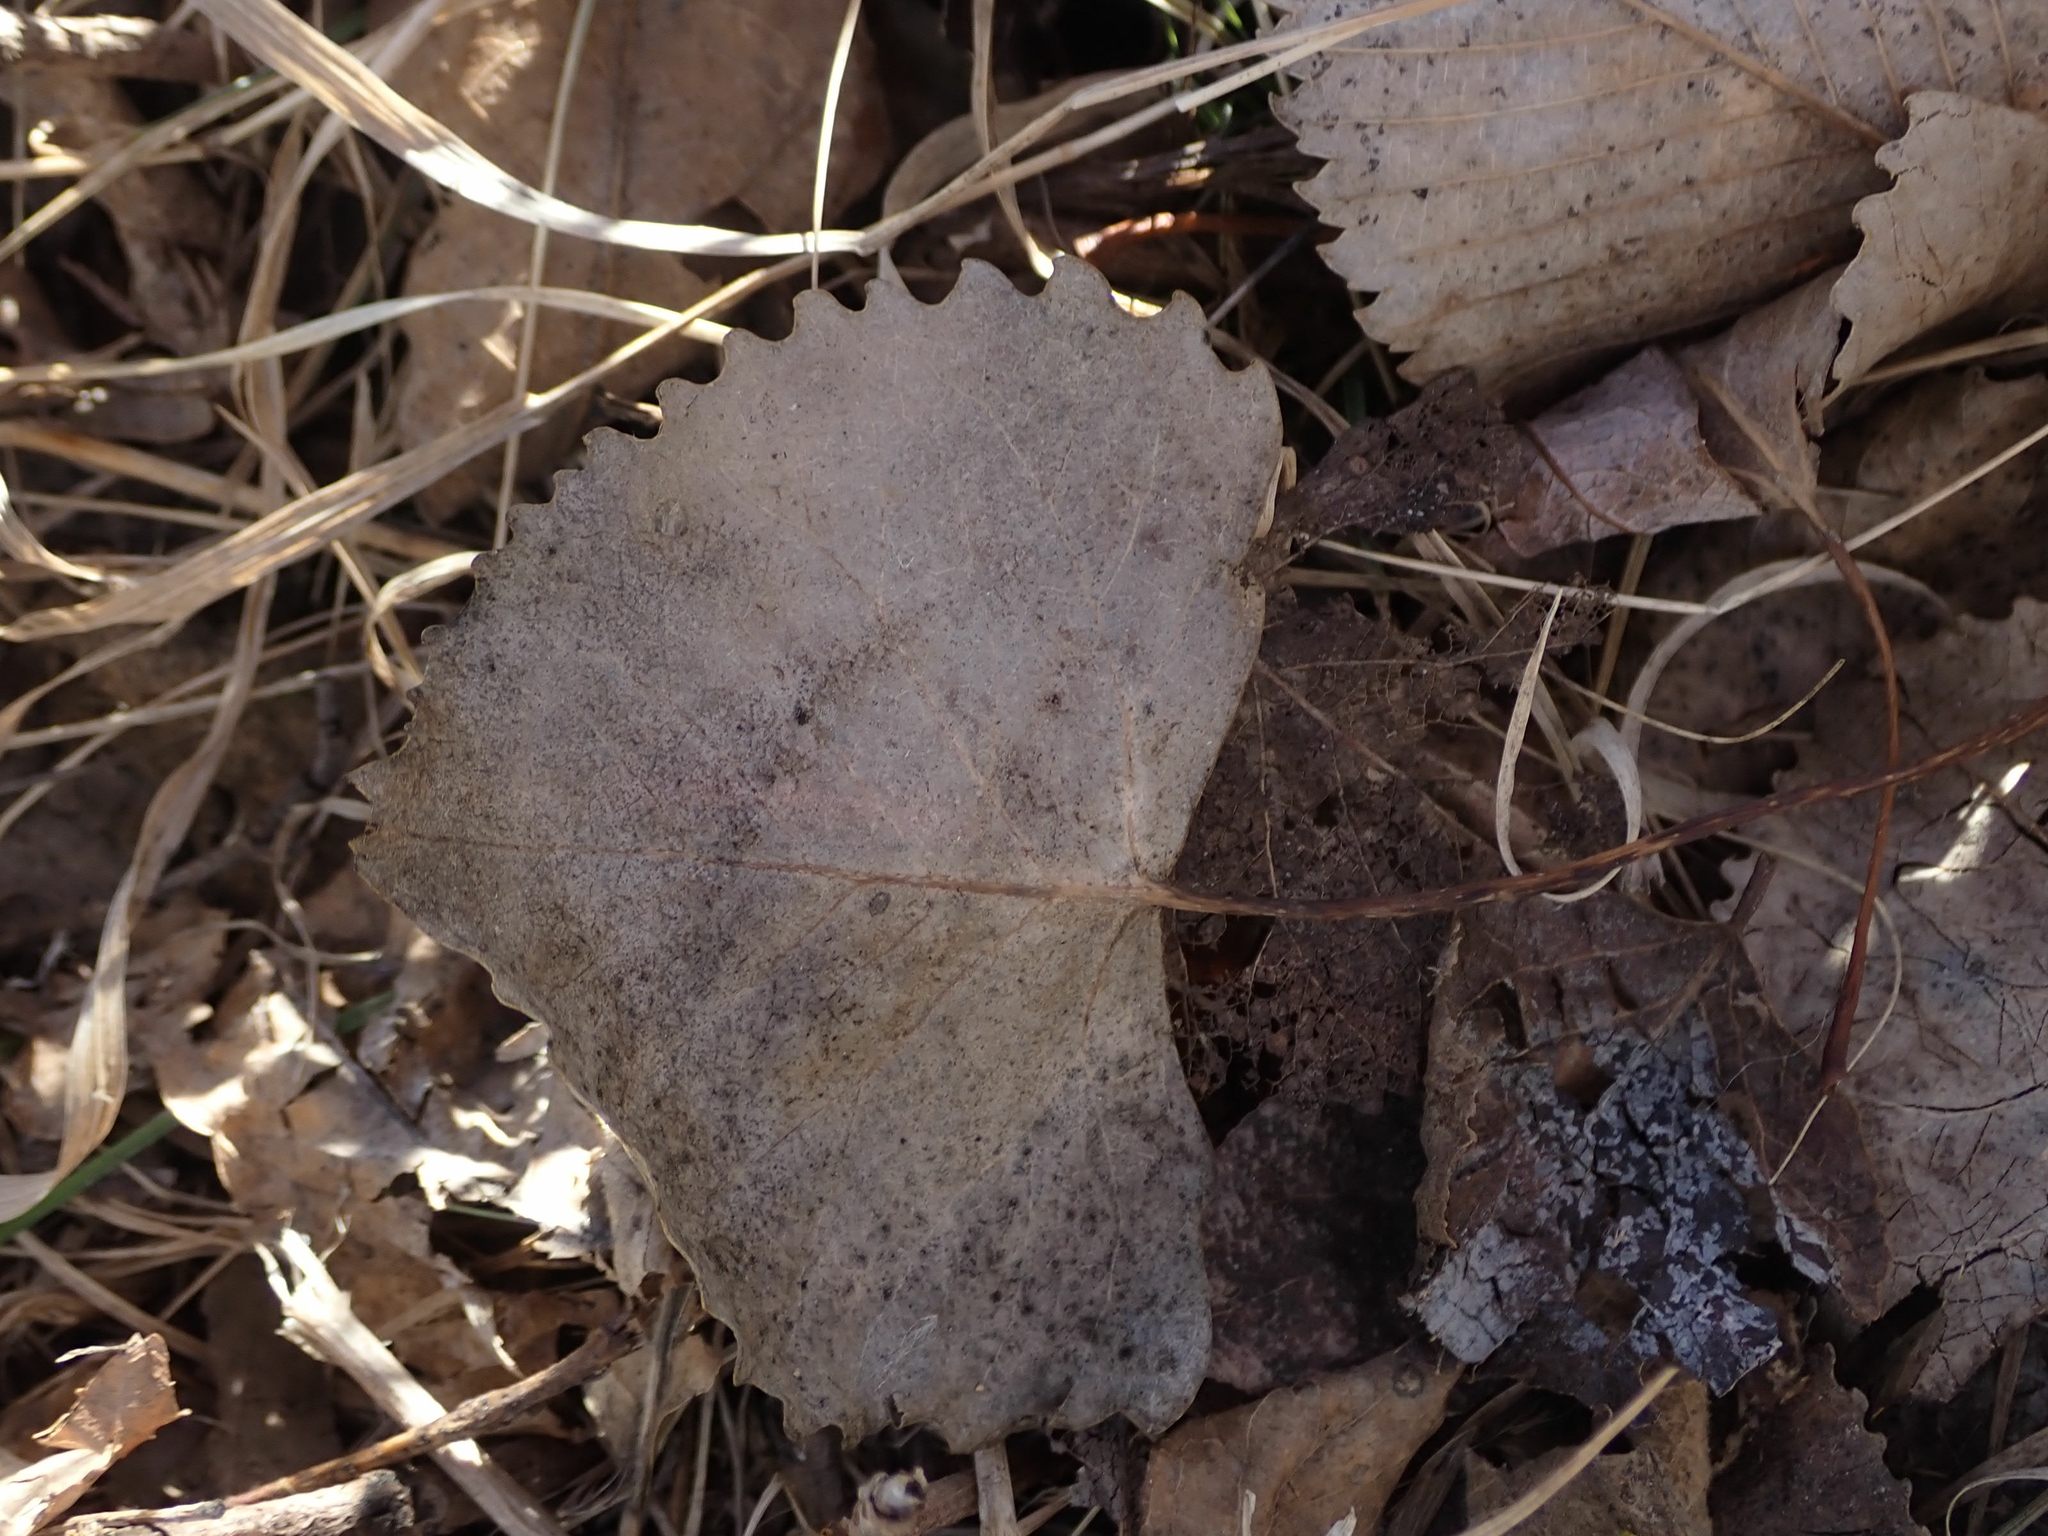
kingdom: Plantae
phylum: Tracheophyta
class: Magnoliopsida
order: Malpighiales
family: Salicaceae
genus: Populus
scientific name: Populus deltoides
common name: Eastern cottonwood
